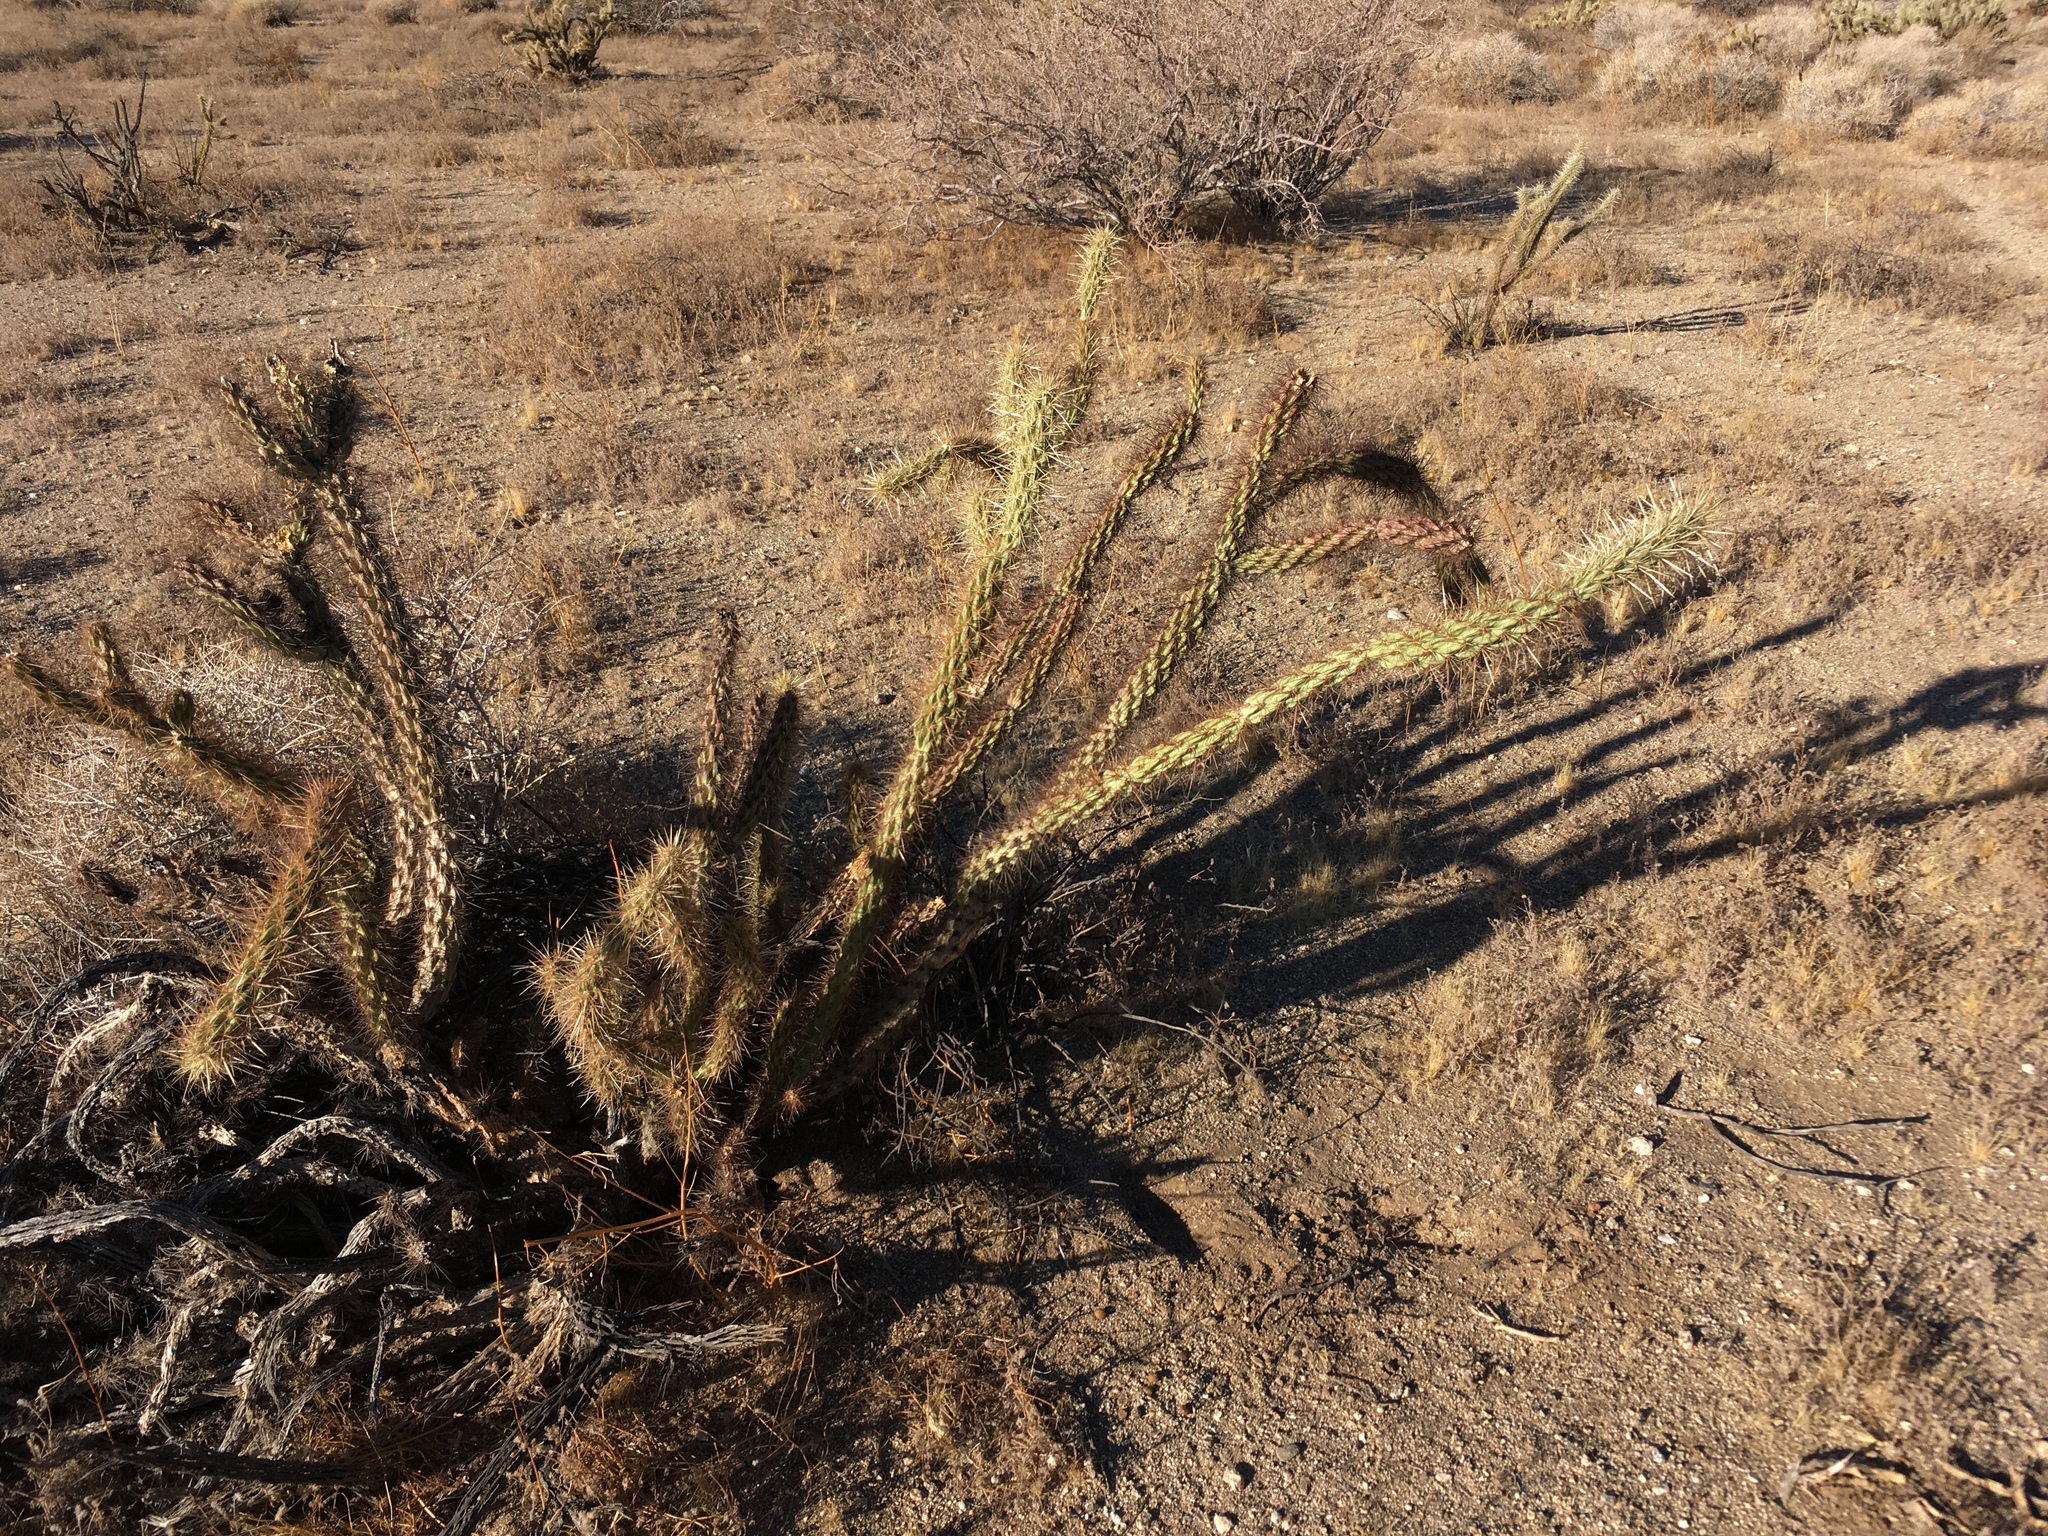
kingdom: Plantae
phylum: Tracheophyta
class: Magnoliopsida
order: Caryophyllales
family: Cactaceae
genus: Cylindropuntia
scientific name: Cylindropuntia ganderi
